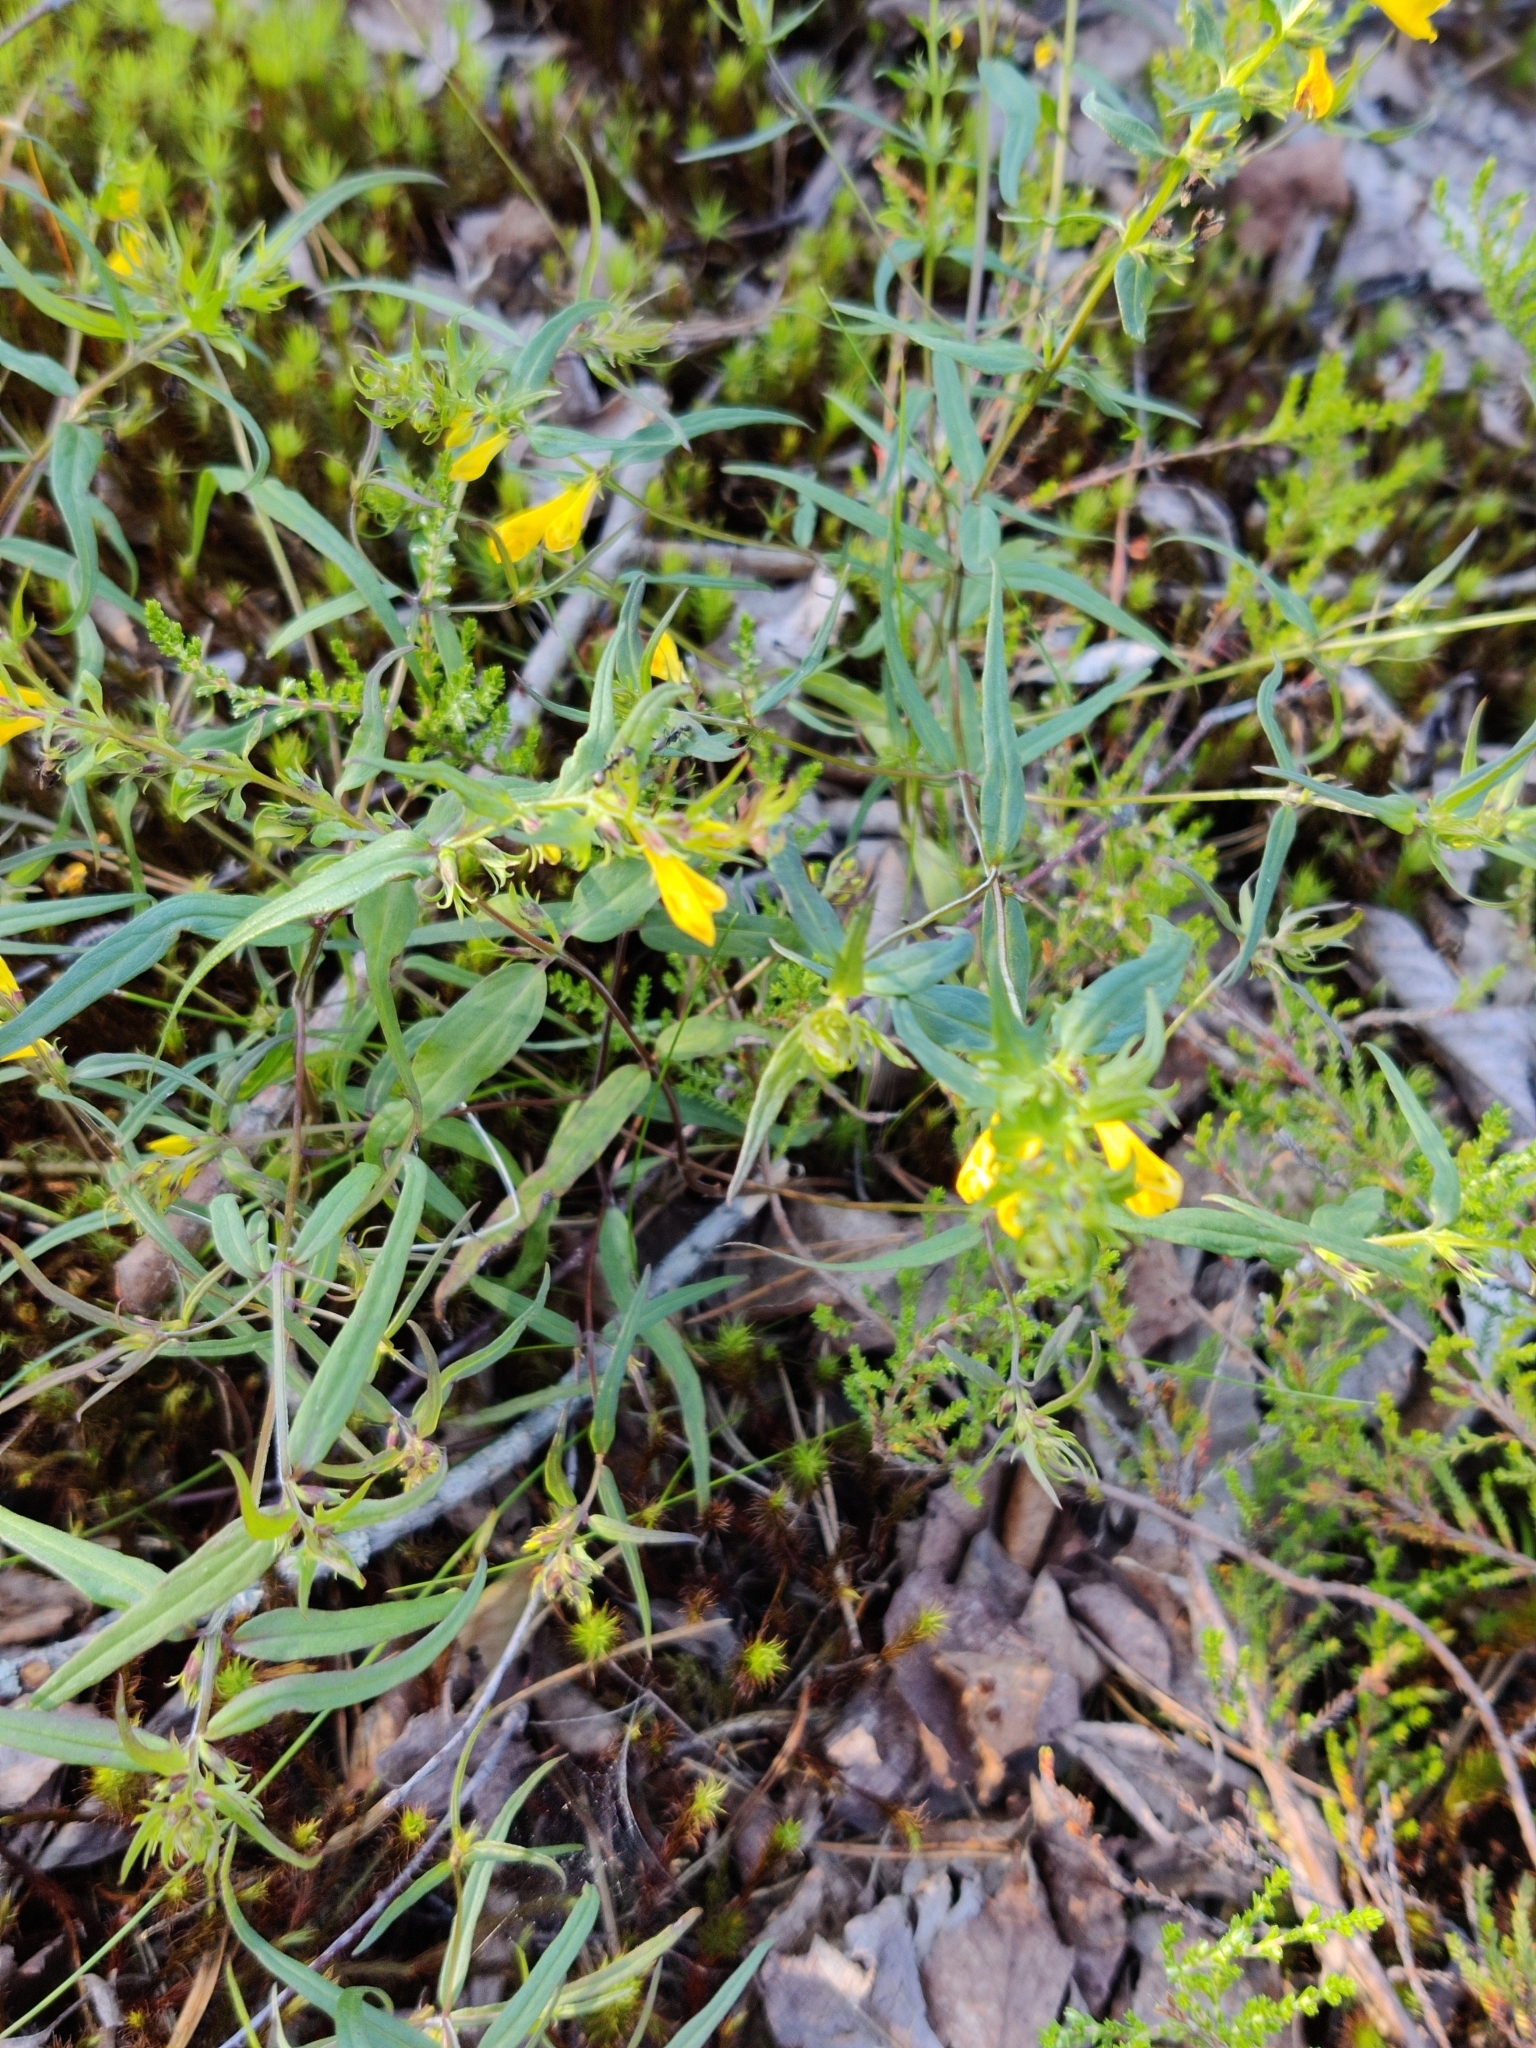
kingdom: Plantae
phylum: Tracheophyta
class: Magnoliopsida
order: Lamiales
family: Orobanchaceae
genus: Melampyrum
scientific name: Melampyrum pratense
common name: Common cow-wheat
